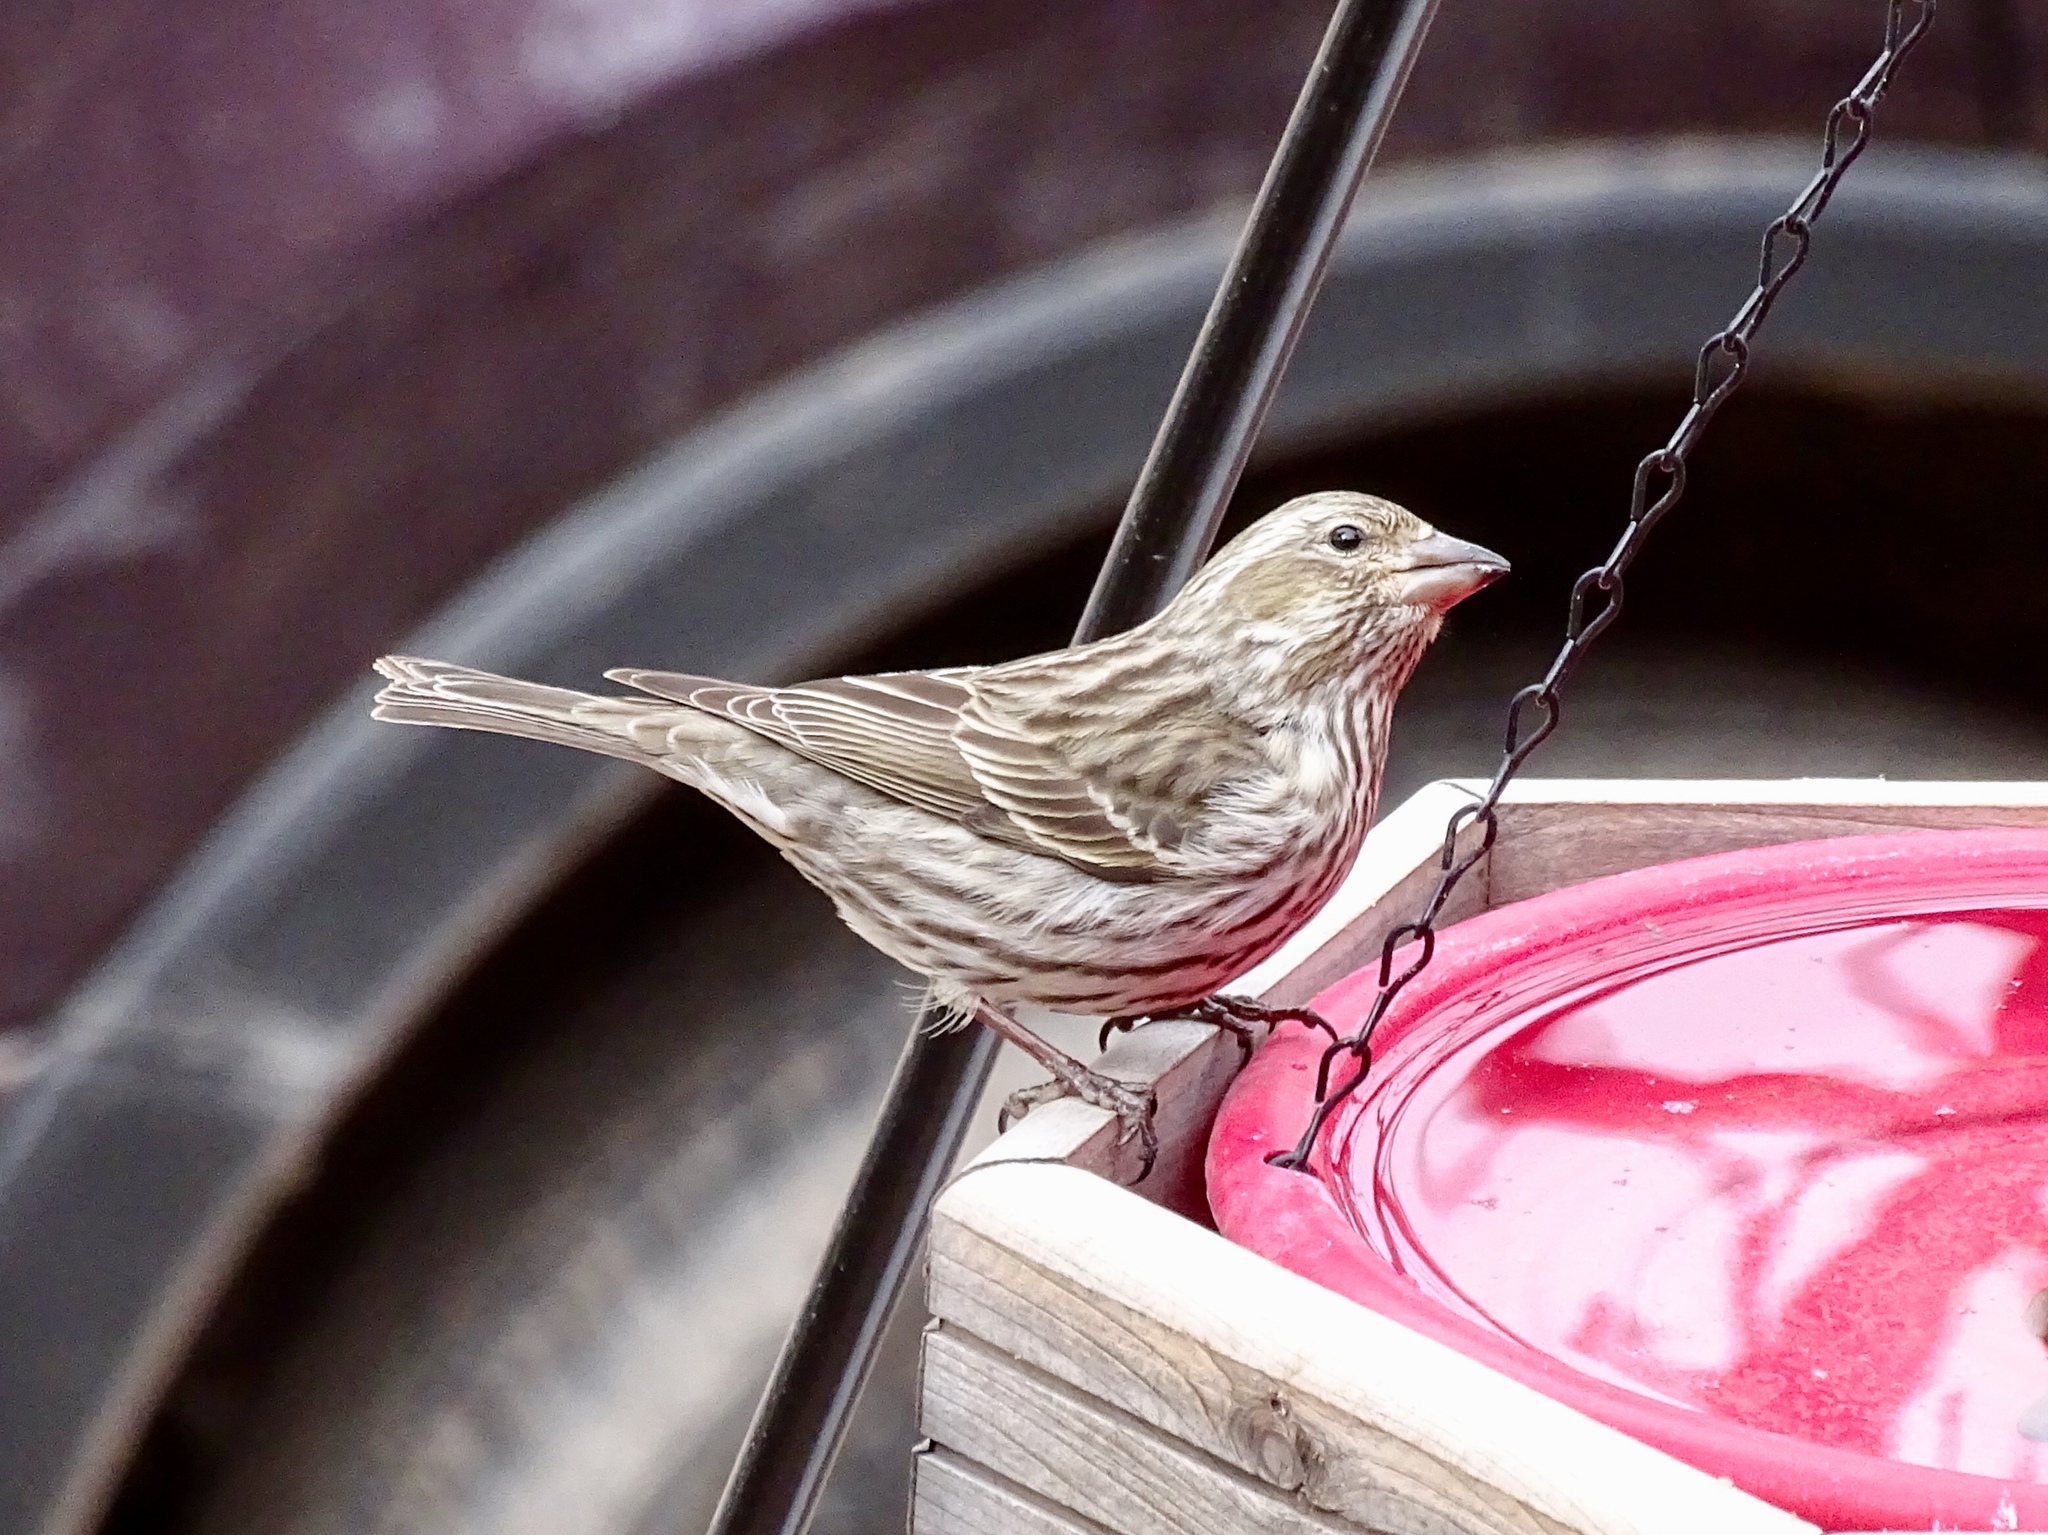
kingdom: Animalia
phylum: Chordata
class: Aves
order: Passeriformes
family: Fringillidae
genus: Haemorhous
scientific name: Haemorhous cassinii
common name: Cassin's finch
